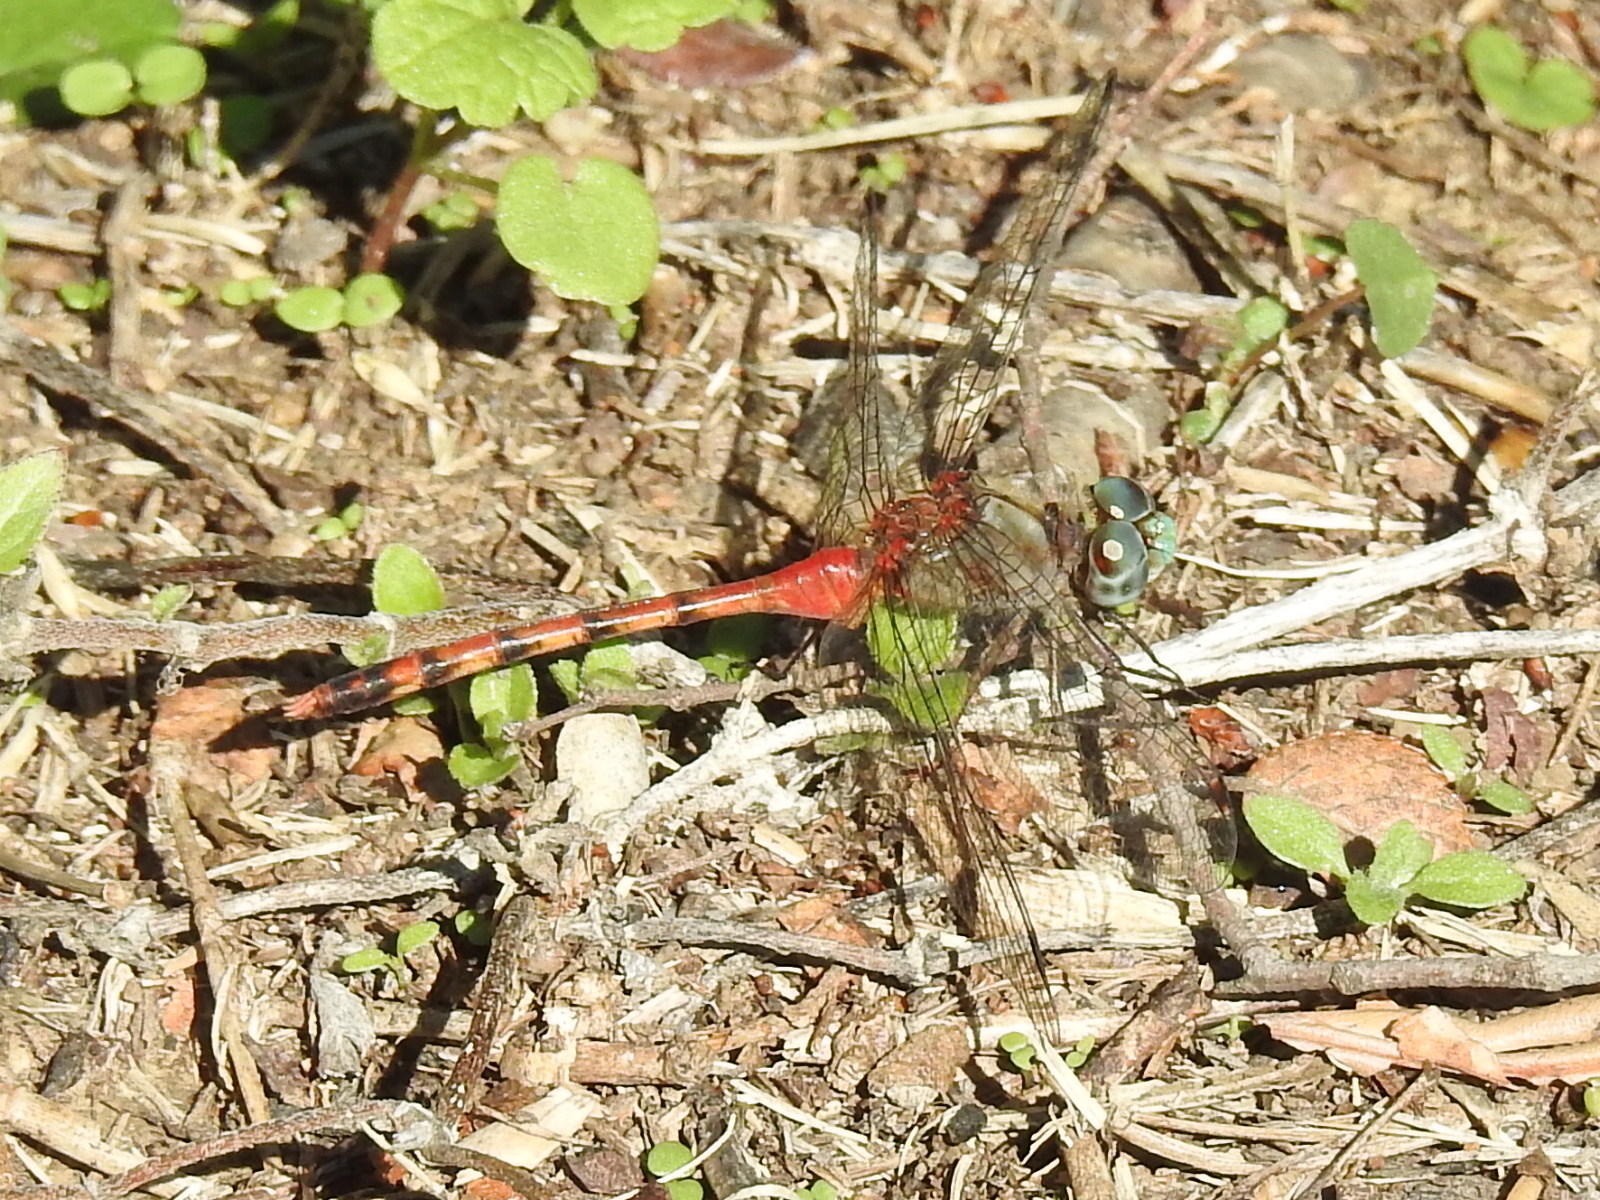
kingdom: Animalia
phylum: Arthropoda
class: Insecta
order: Odonata
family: Libellulidae
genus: Sympetrum
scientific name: Sympetrum ambiguum
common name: Blue-faced meadowhawk
